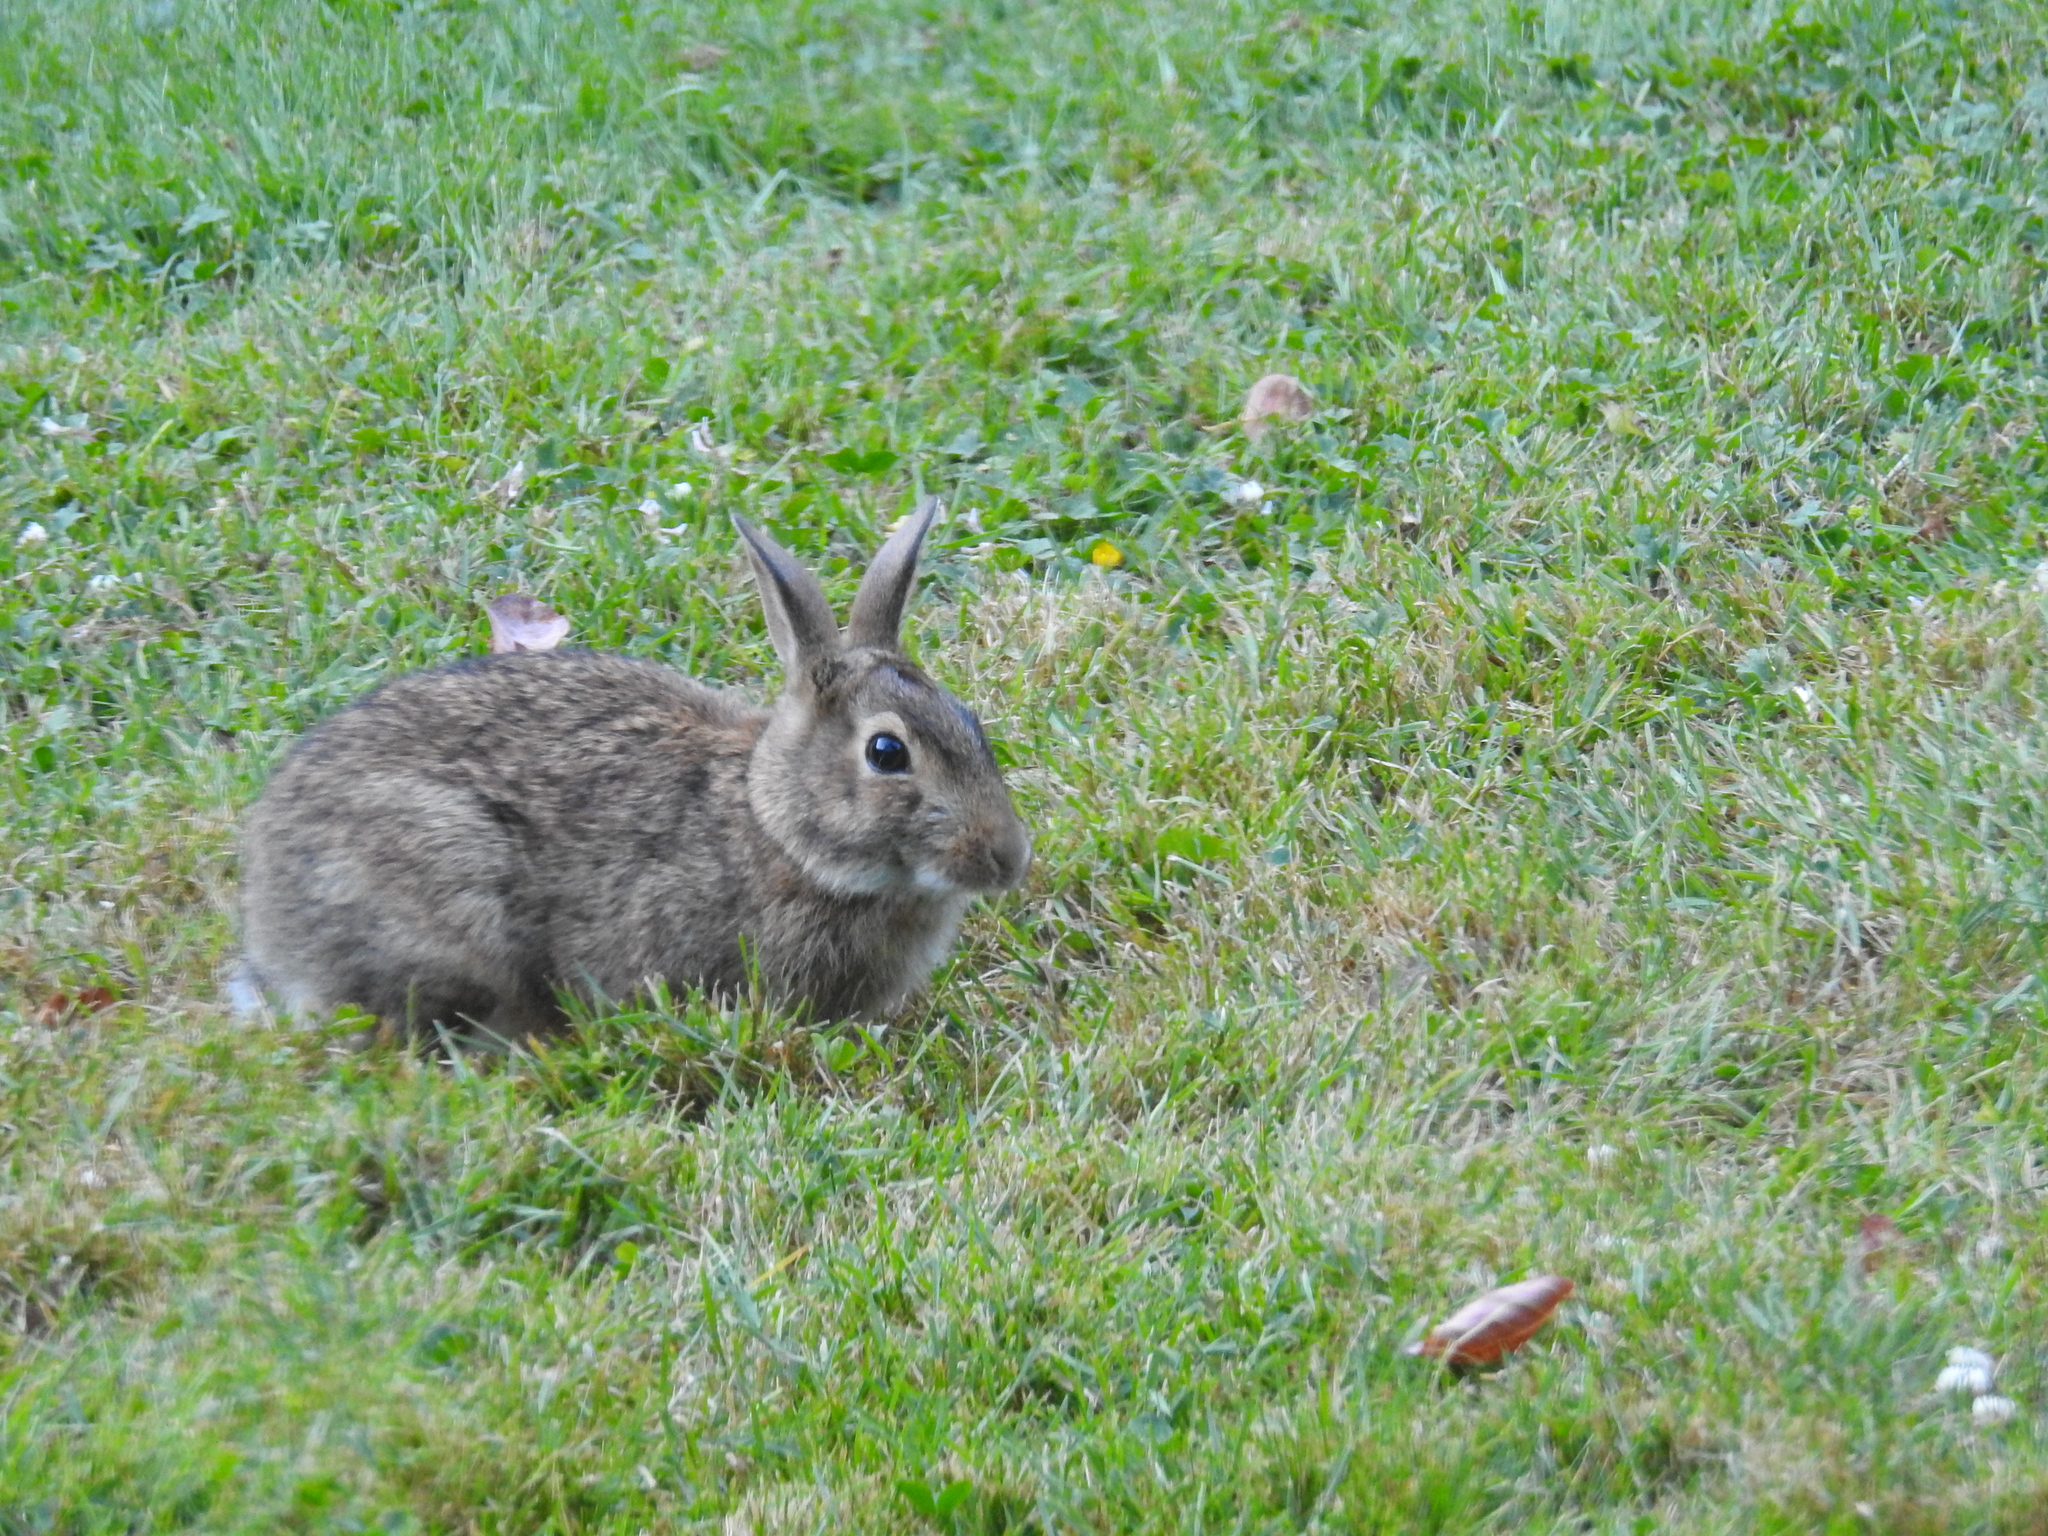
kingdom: Animalia
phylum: Chordata
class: Mammalia
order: Lagomorpha
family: Leporidae
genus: Sylvilagus
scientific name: Sylvilagus floridanus
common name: Eastern cottontail
